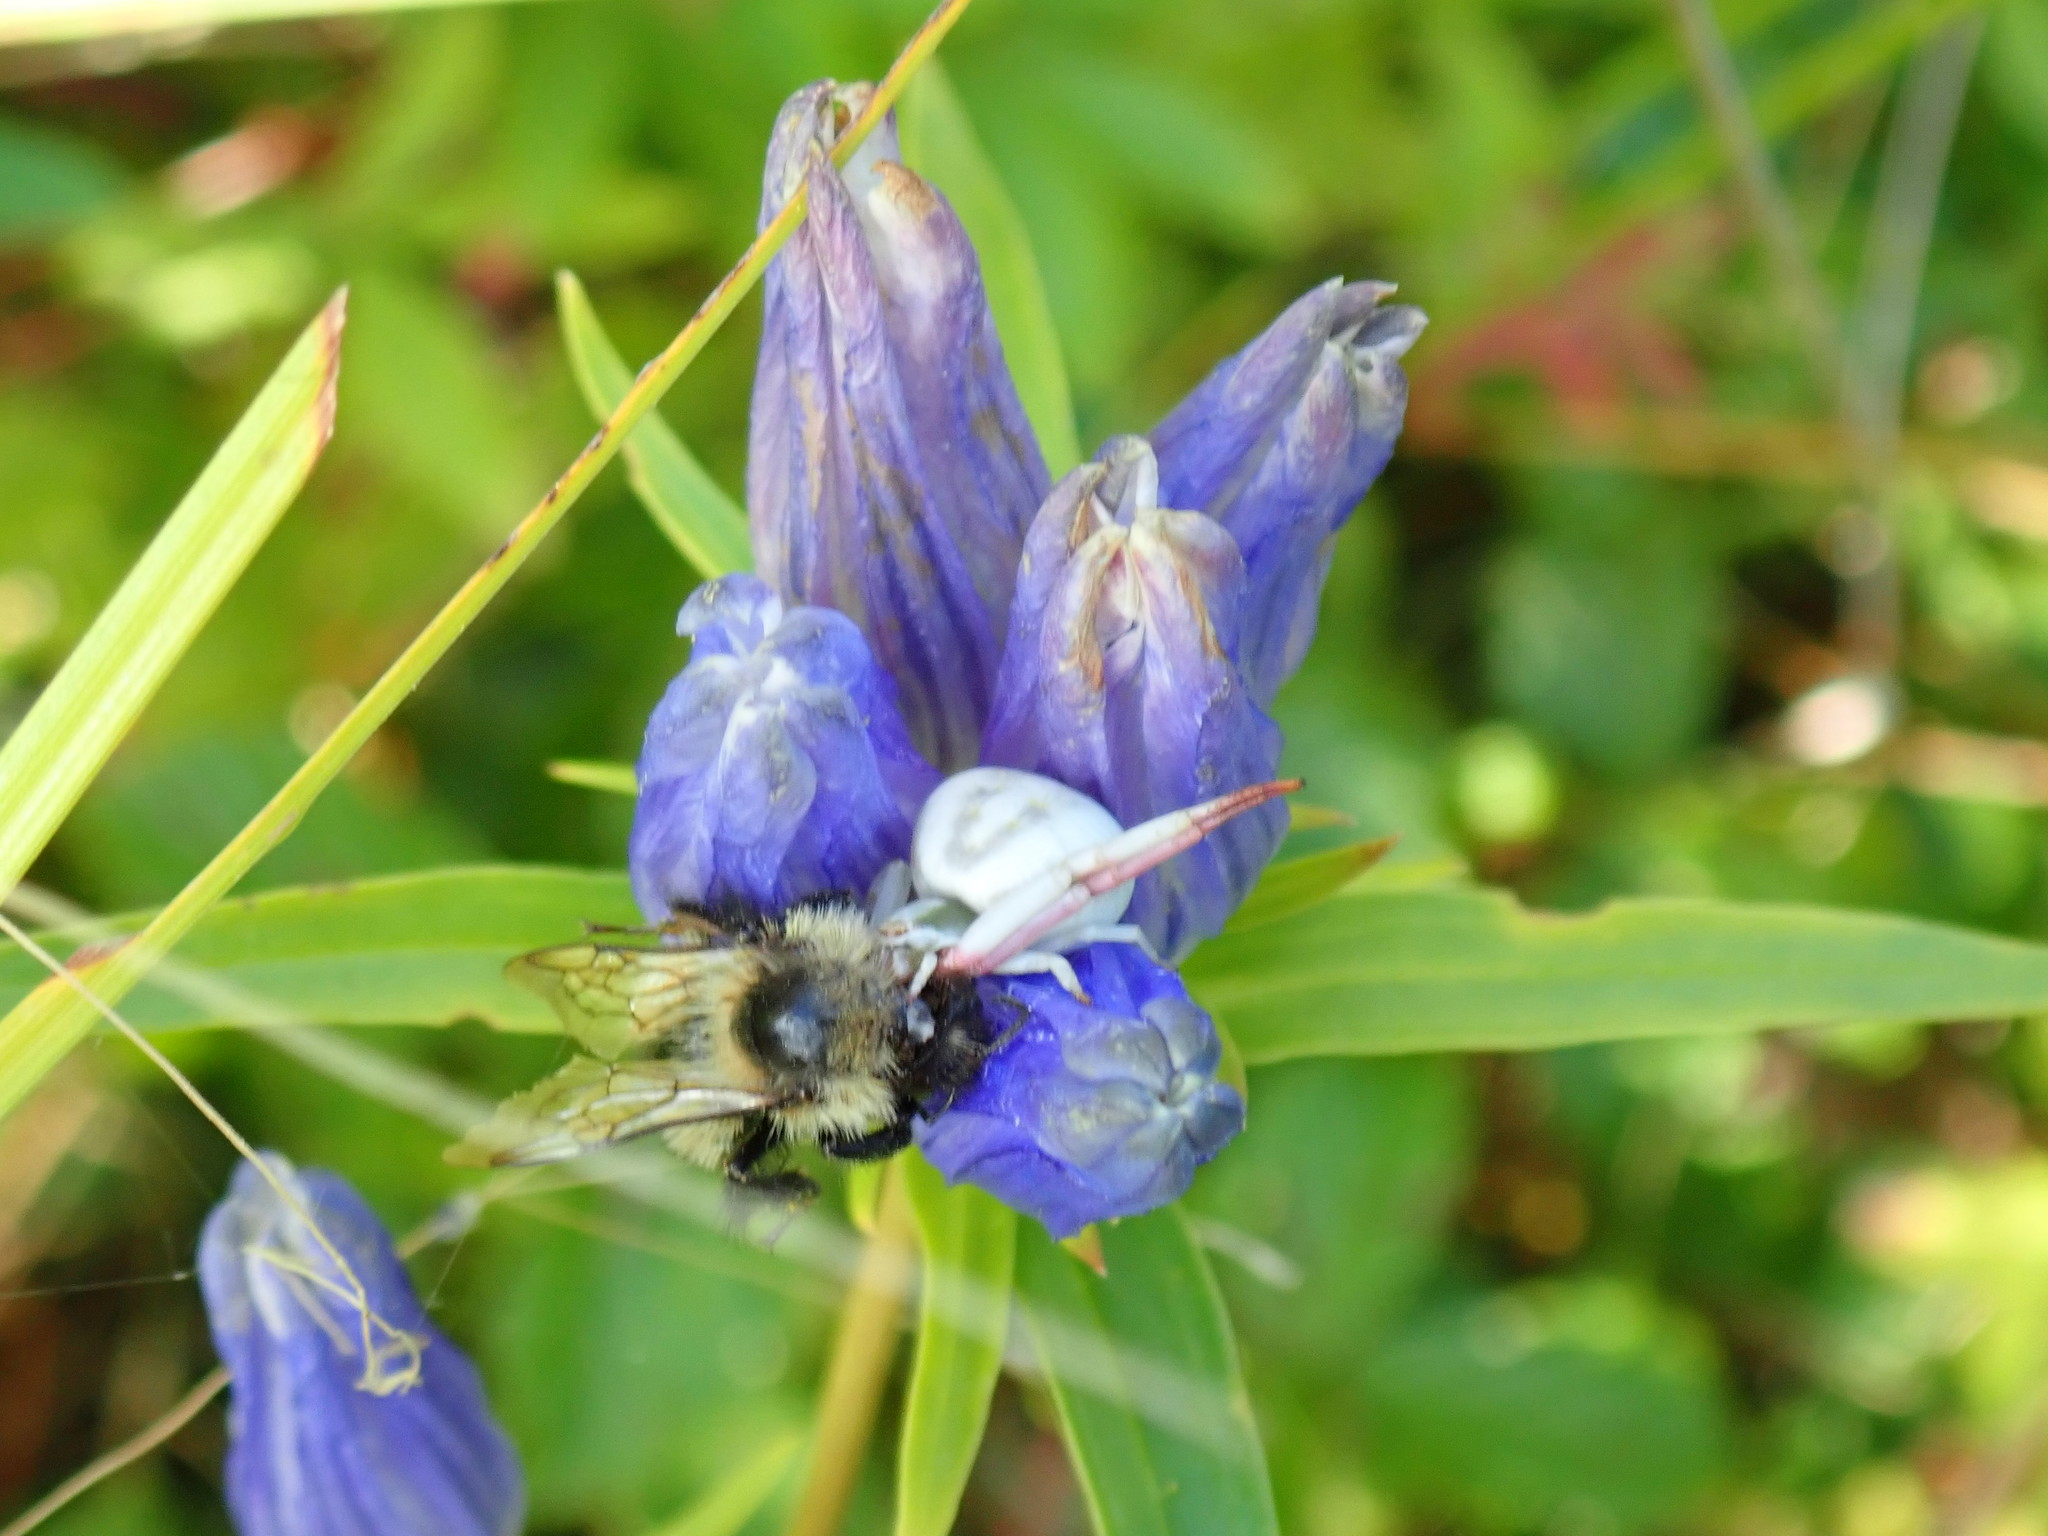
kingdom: Animalia
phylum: Arthropoda
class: Arachnida
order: Araneae
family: Thomisidae
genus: Misumenoides
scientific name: Misumenoides formosipes
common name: White-banded crab spider
